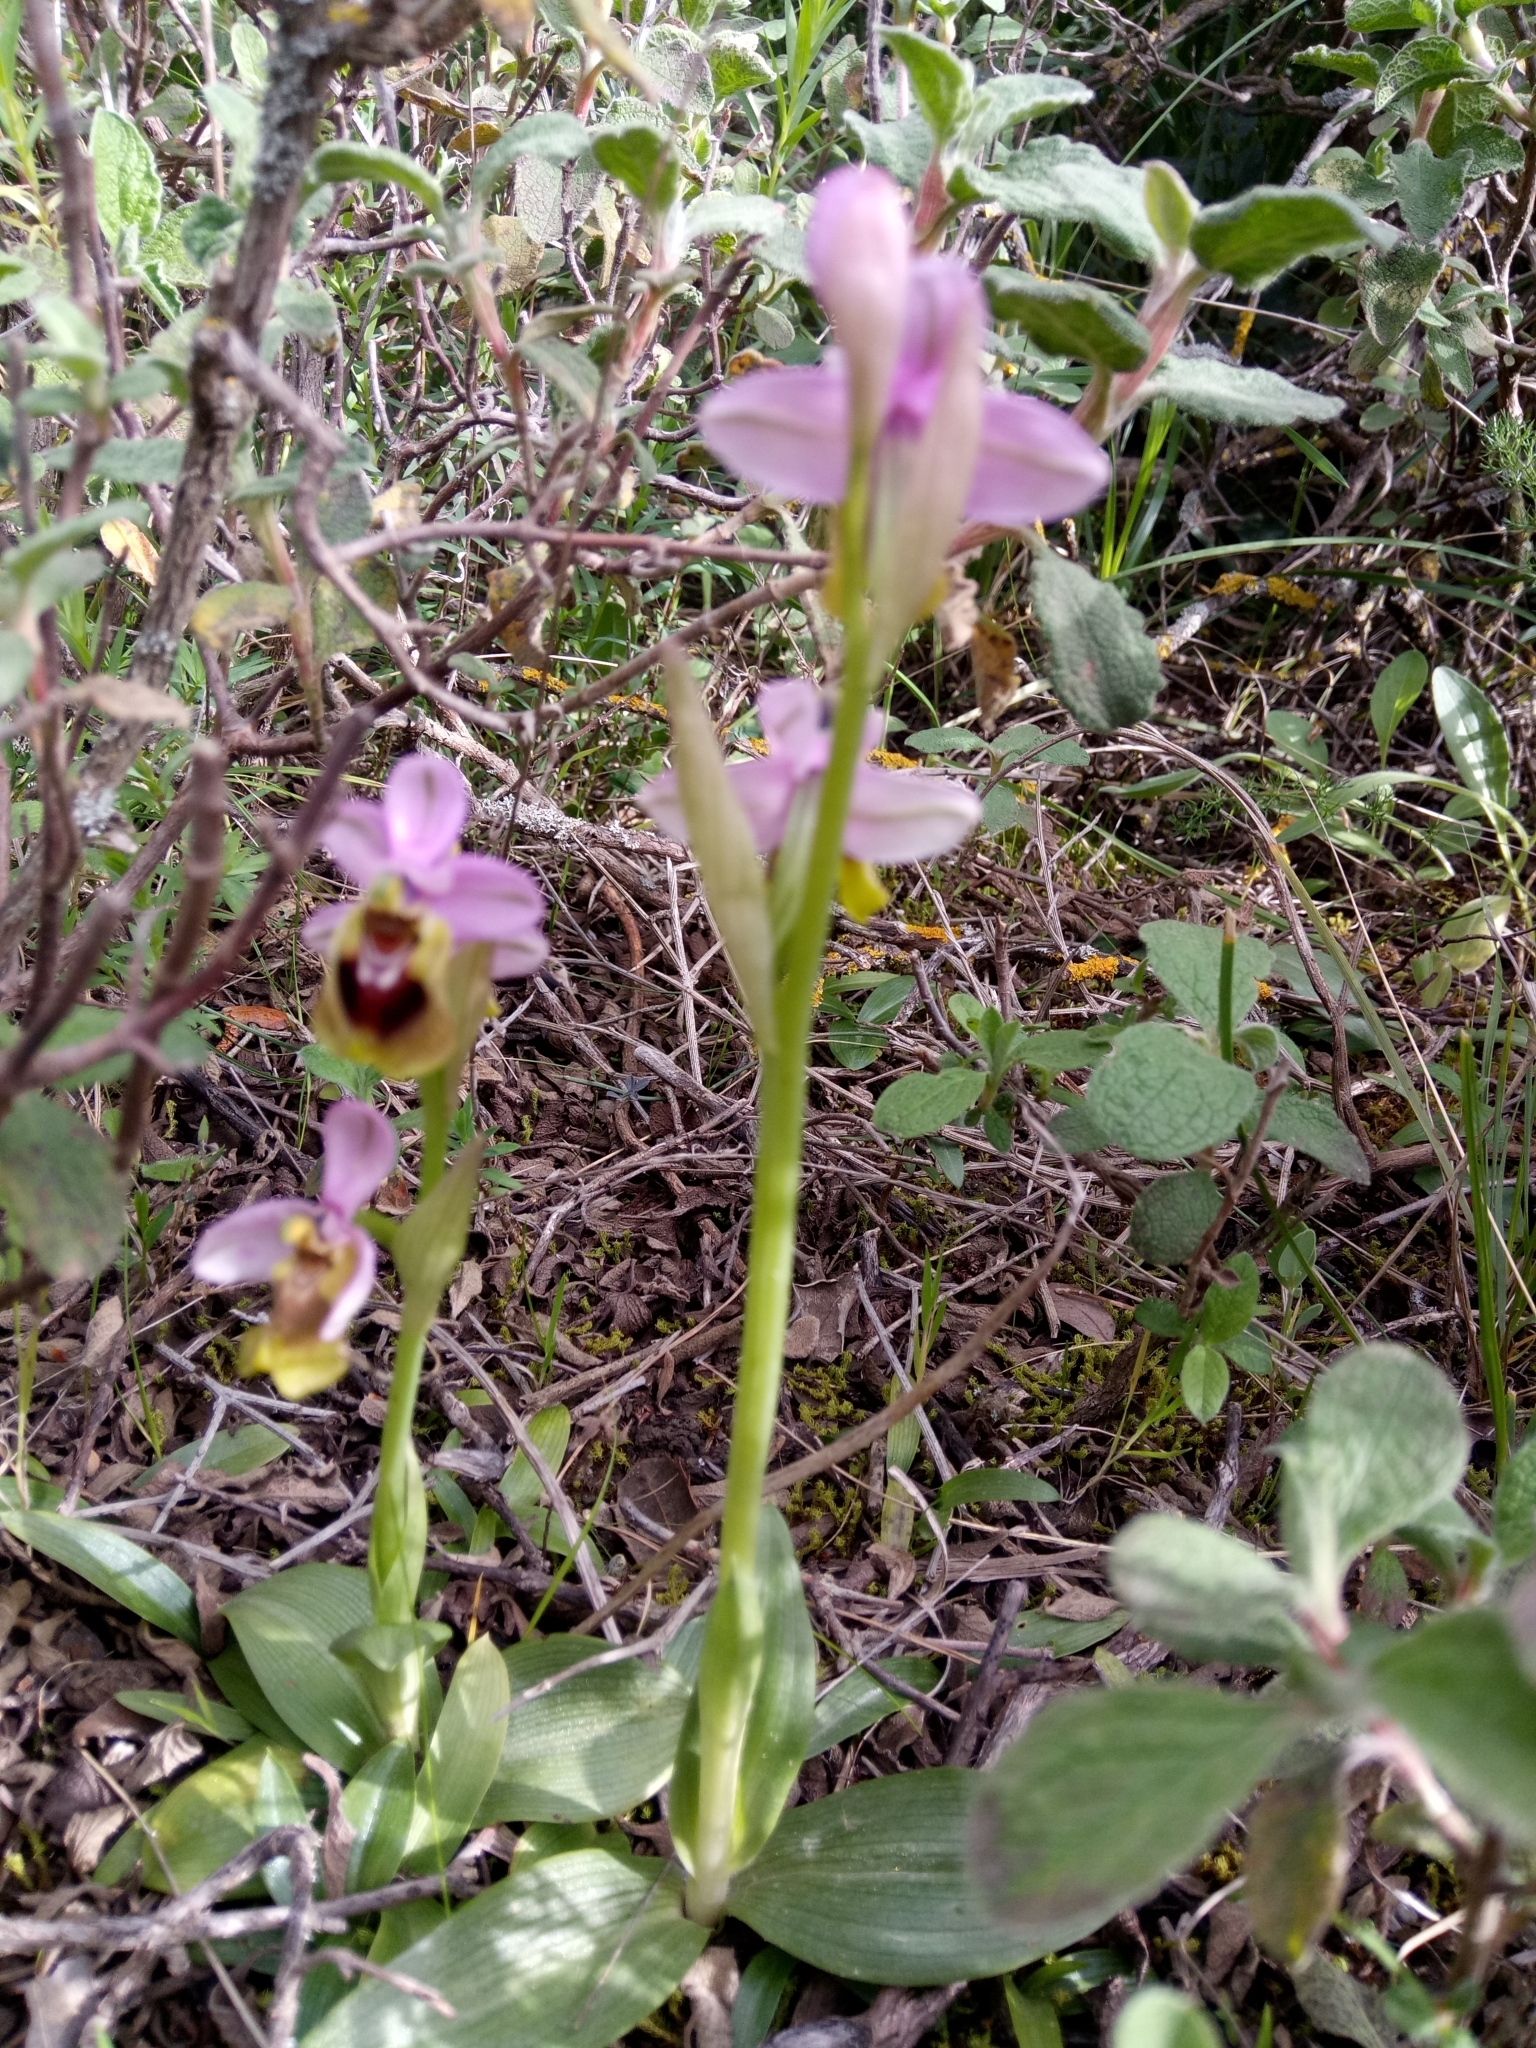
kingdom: Plantae
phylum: Tracheophyta
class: Liliopsida
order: Asparagales
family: Orchidaceae
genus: Ophrys
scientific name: Ophrys tenthredinifera
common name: Sawfly orchid
